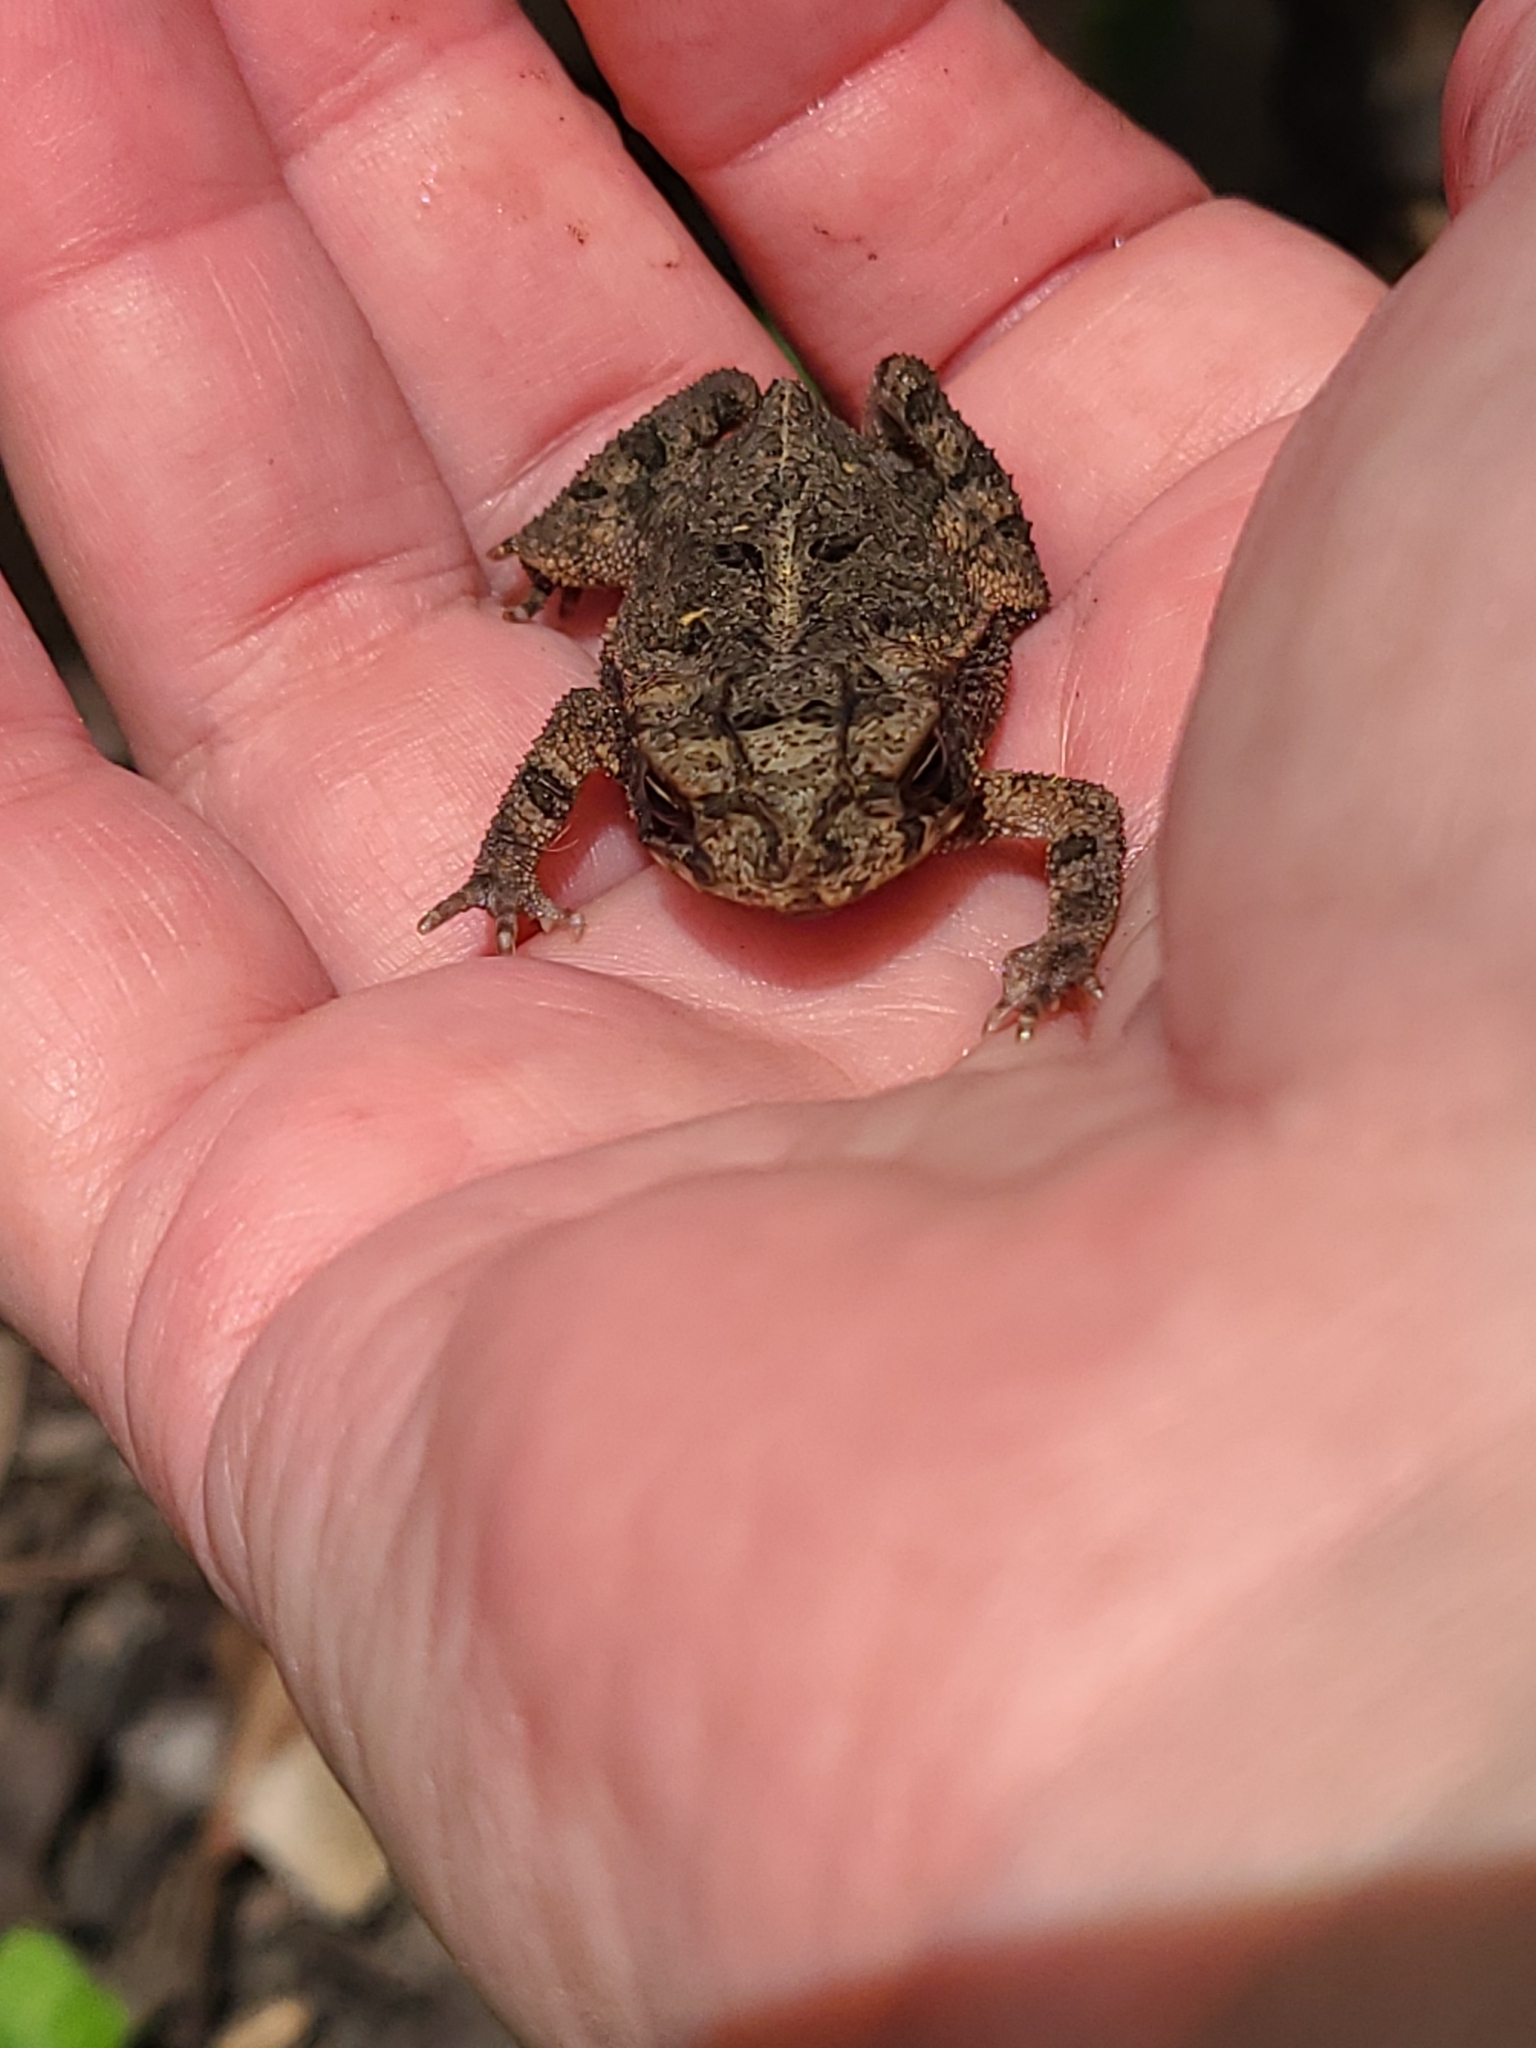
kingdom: Animalia
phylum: Chordata
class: Amphibia
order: Anura
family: Bufonidae
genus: Incilius
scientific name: Incilius nebulifer
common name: Gulf coast toad
